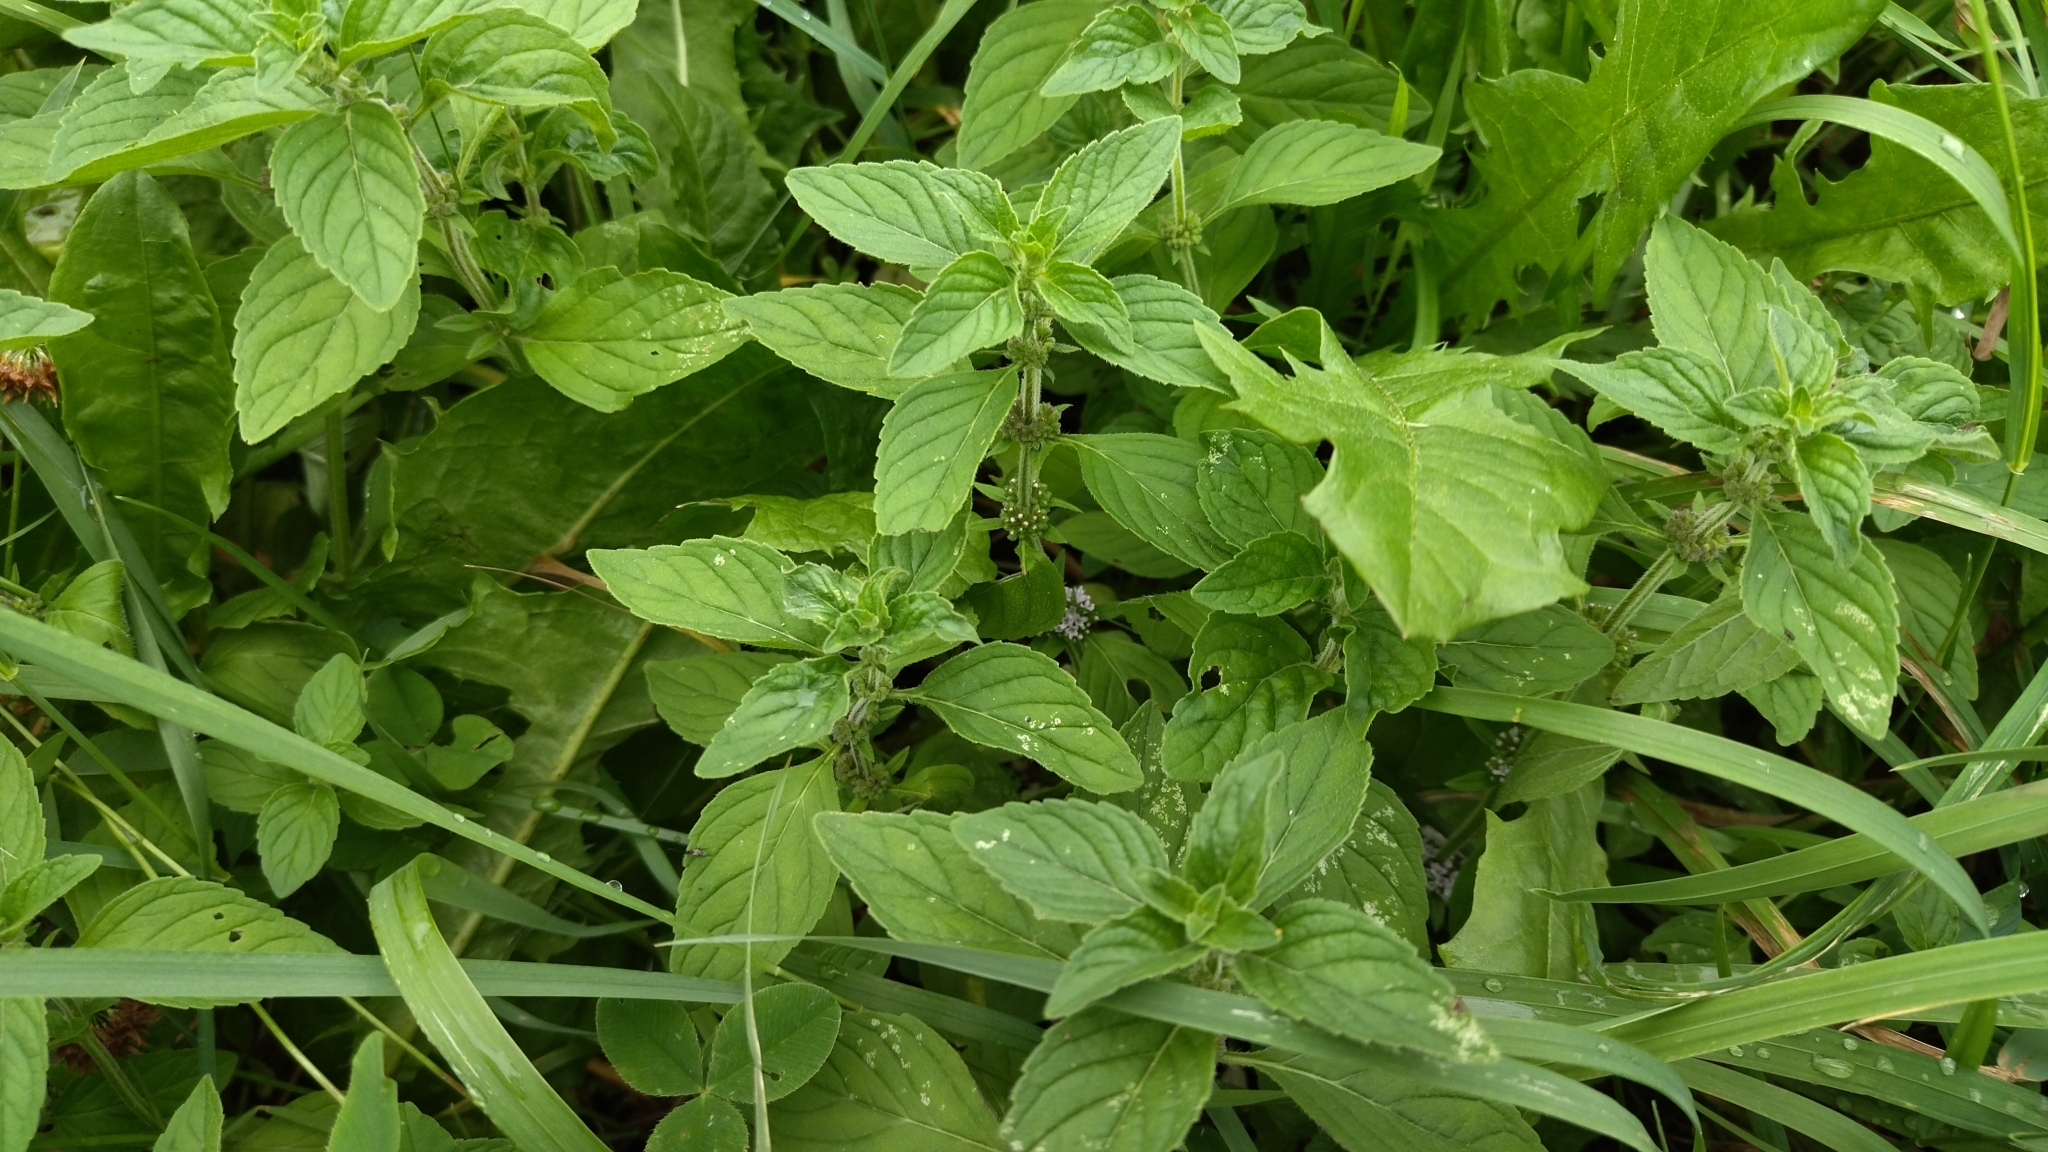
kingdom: Plantae
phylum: Tracheophyta
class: Magnoliopsida
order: Lamiales
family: Lamiaceae
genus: Mentha
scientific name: Mentha arvensis
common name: Corn mint
